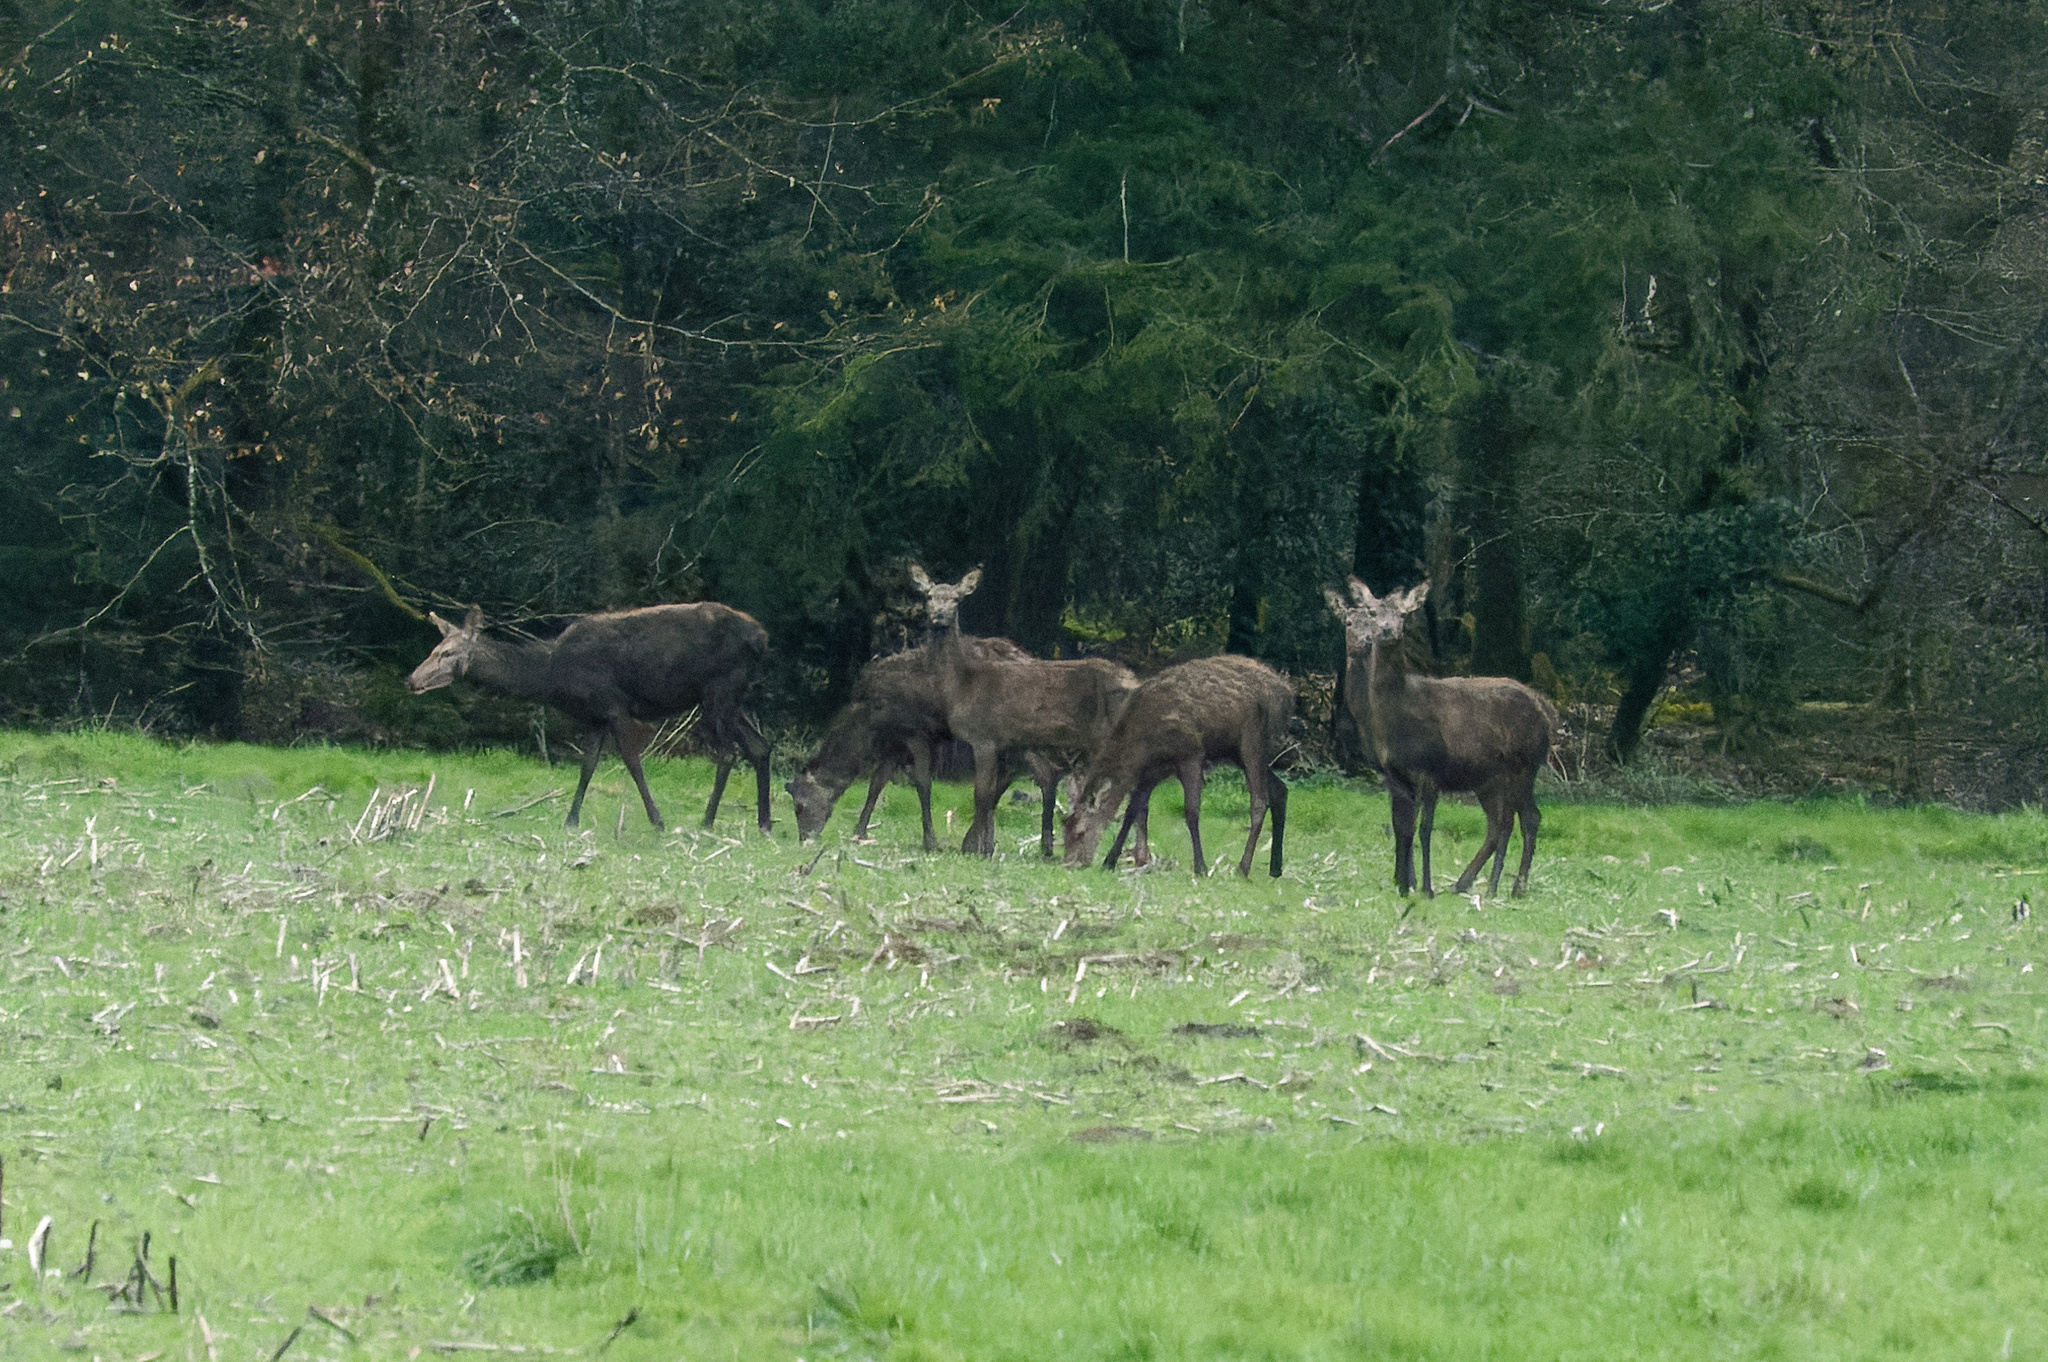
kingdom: Animalia
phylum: Chordata
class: Mammalia
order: Artiodactyla
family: Cervidae
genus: Cervus
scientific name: Cervus elaphus
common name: Red deer
